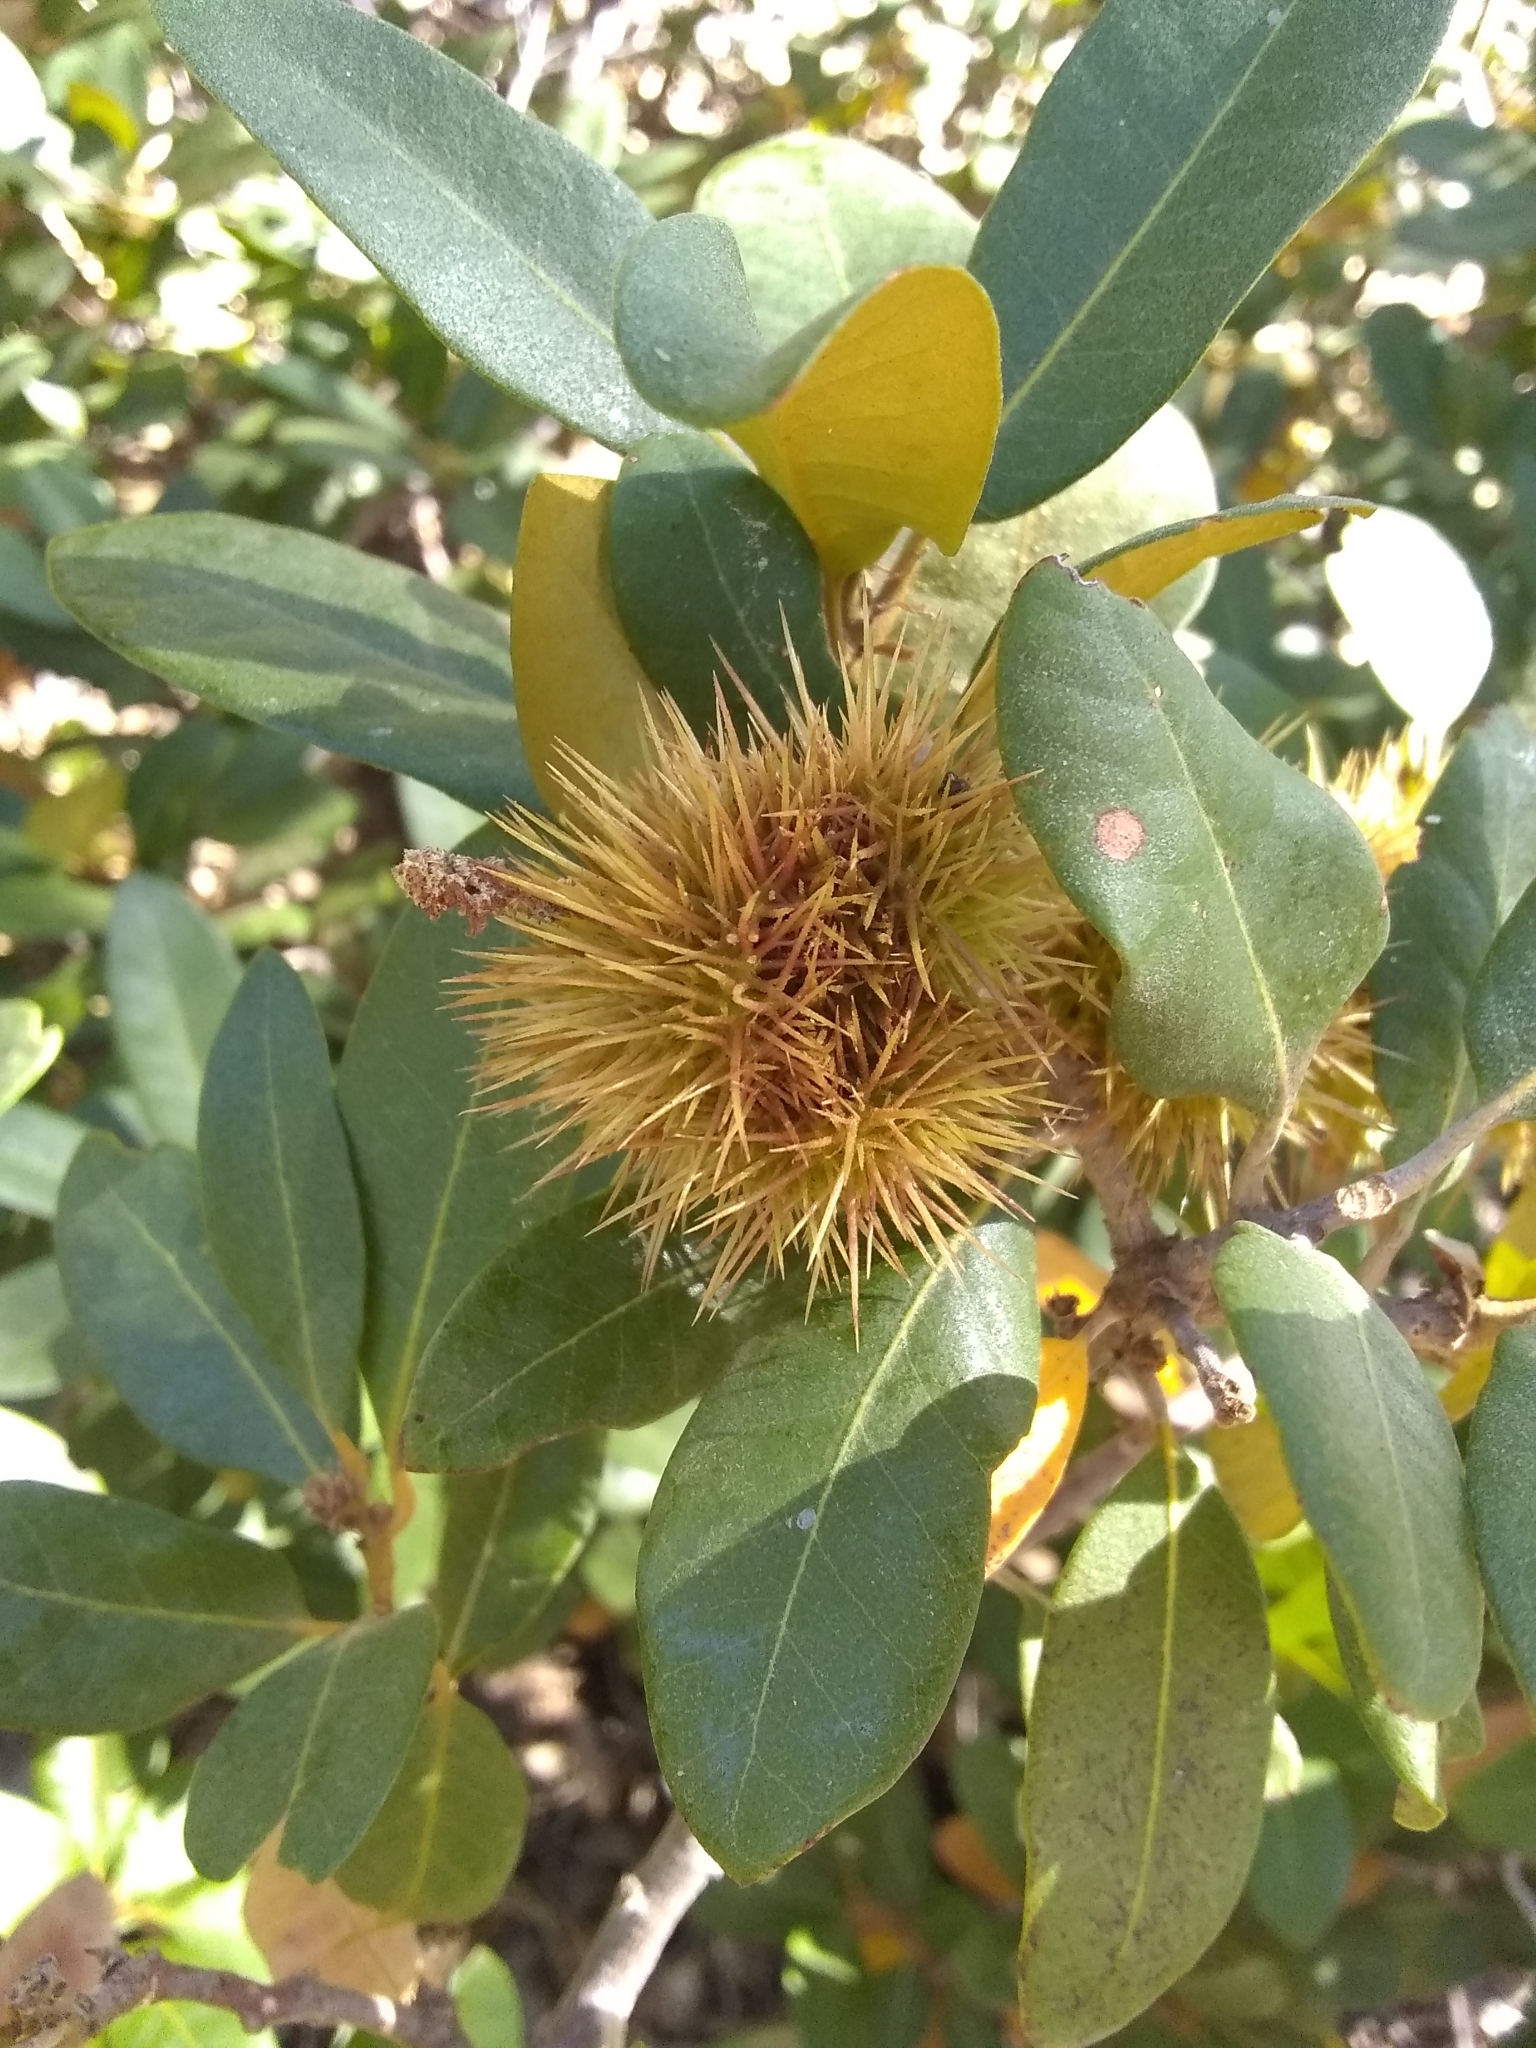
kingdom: Plantae
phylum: Tracheophyta
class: Magnoliopsida
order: Fagales
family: Fagaceae
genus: Chrysolepis
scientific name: Chrysolepis sempervirens
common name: Bush chinquapin
